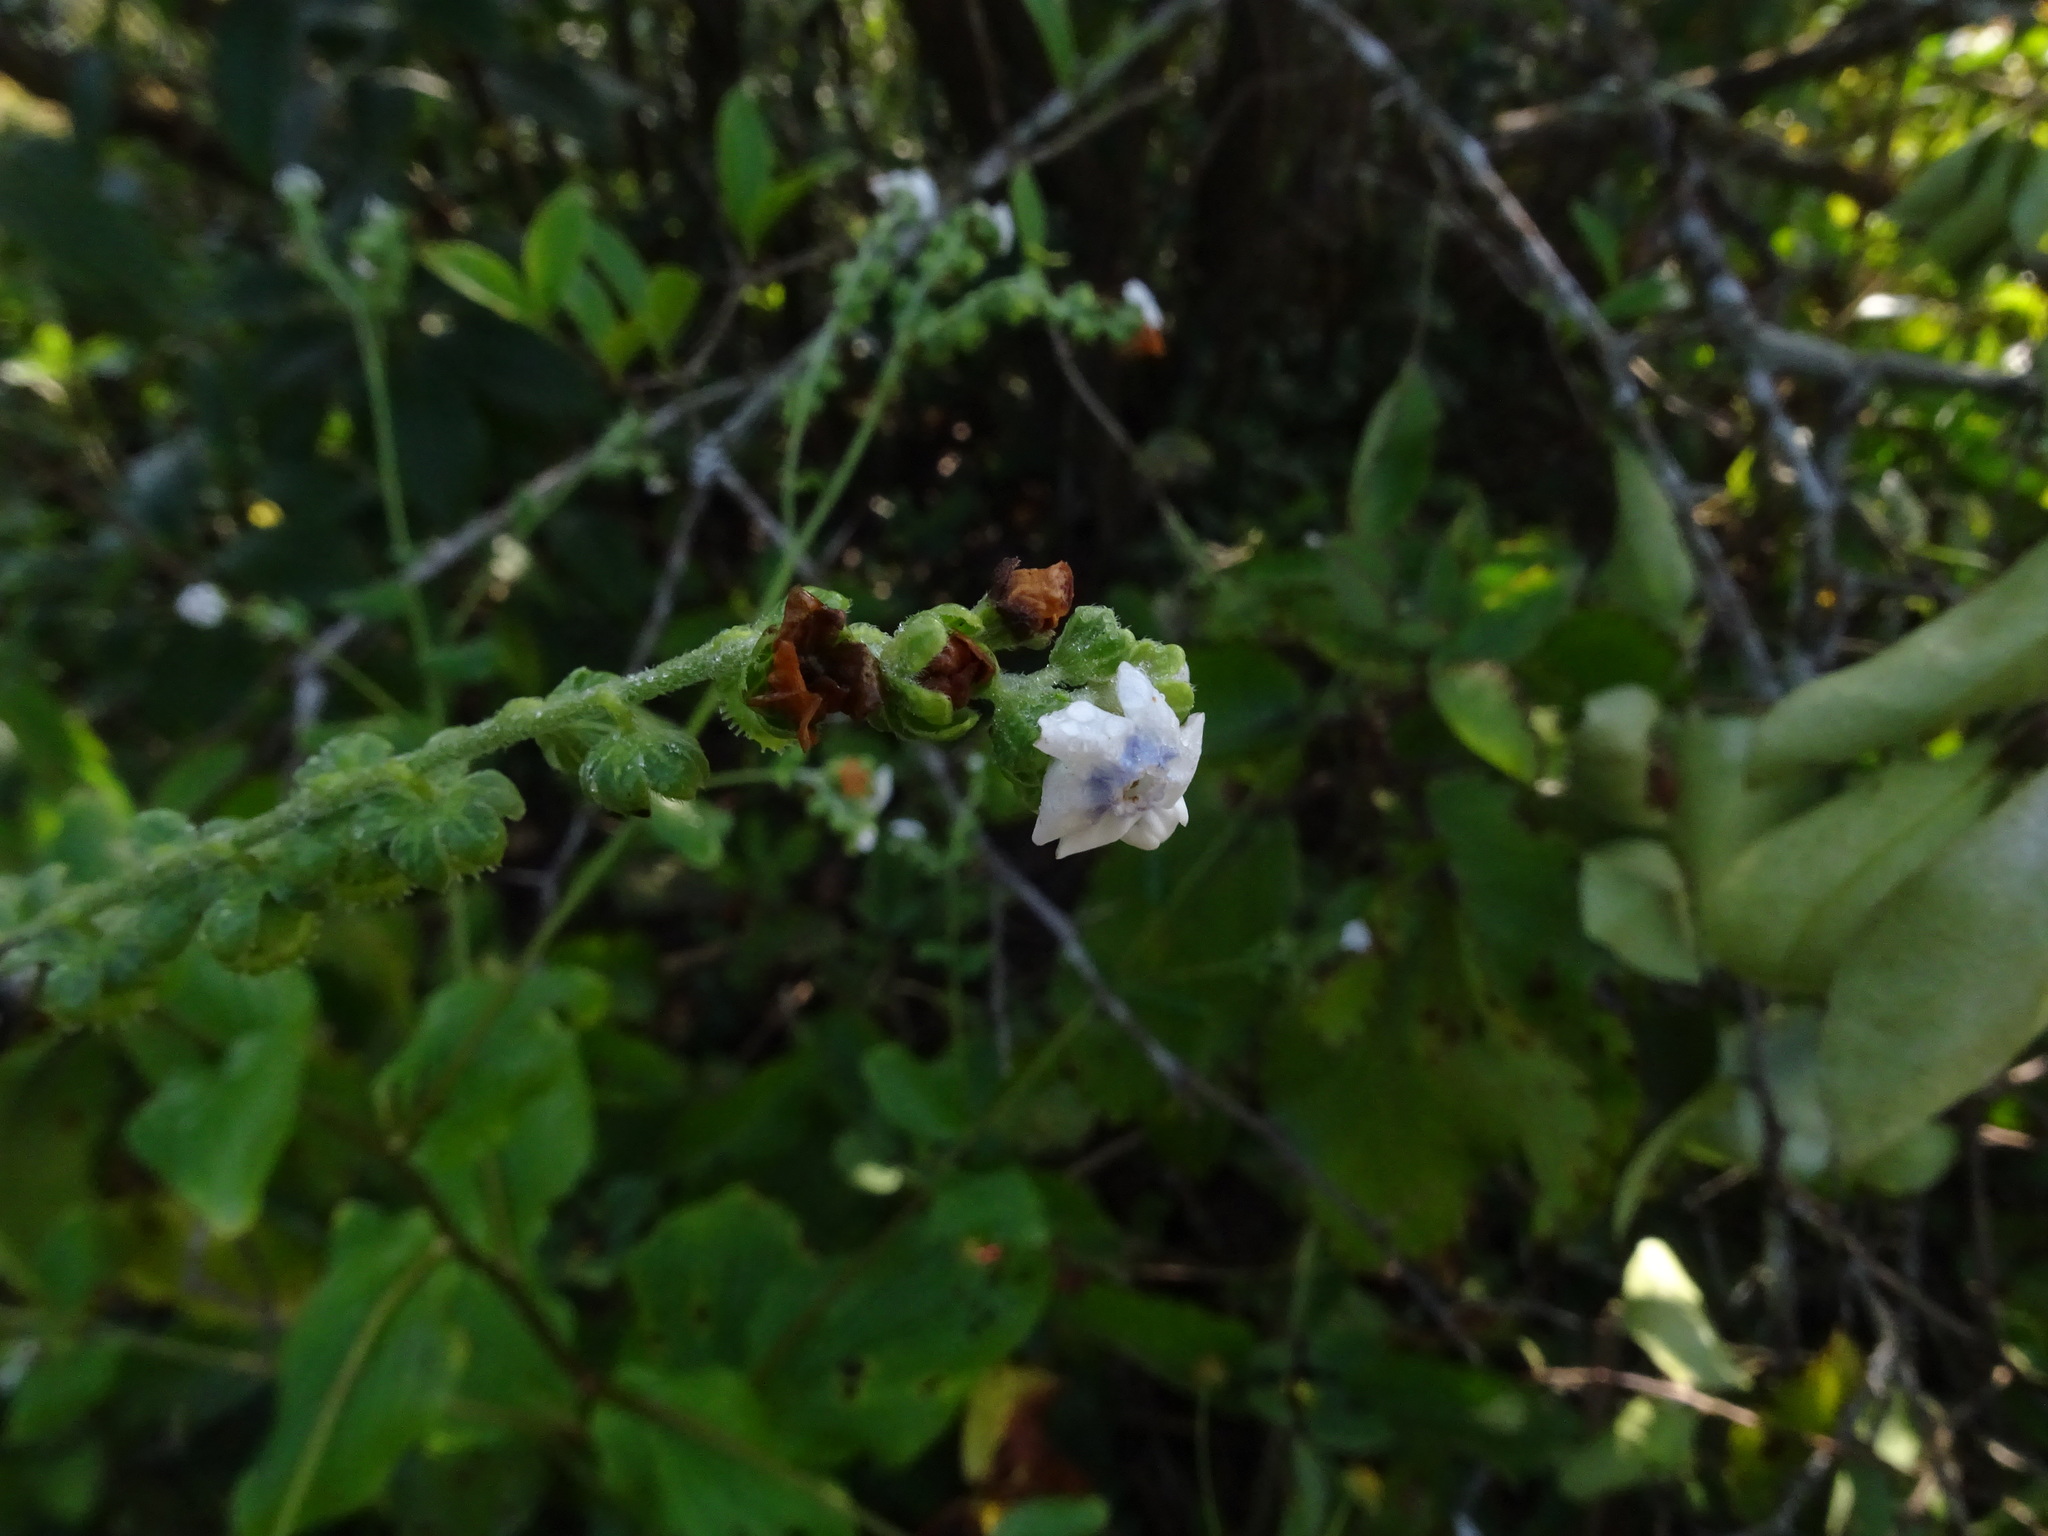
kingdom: Plantae
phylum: Tracheophyta
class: Magnoliopsida
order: Boraginales
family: Boraginaceae
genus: Paracaryum
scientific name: Paracaryum coelestinum
